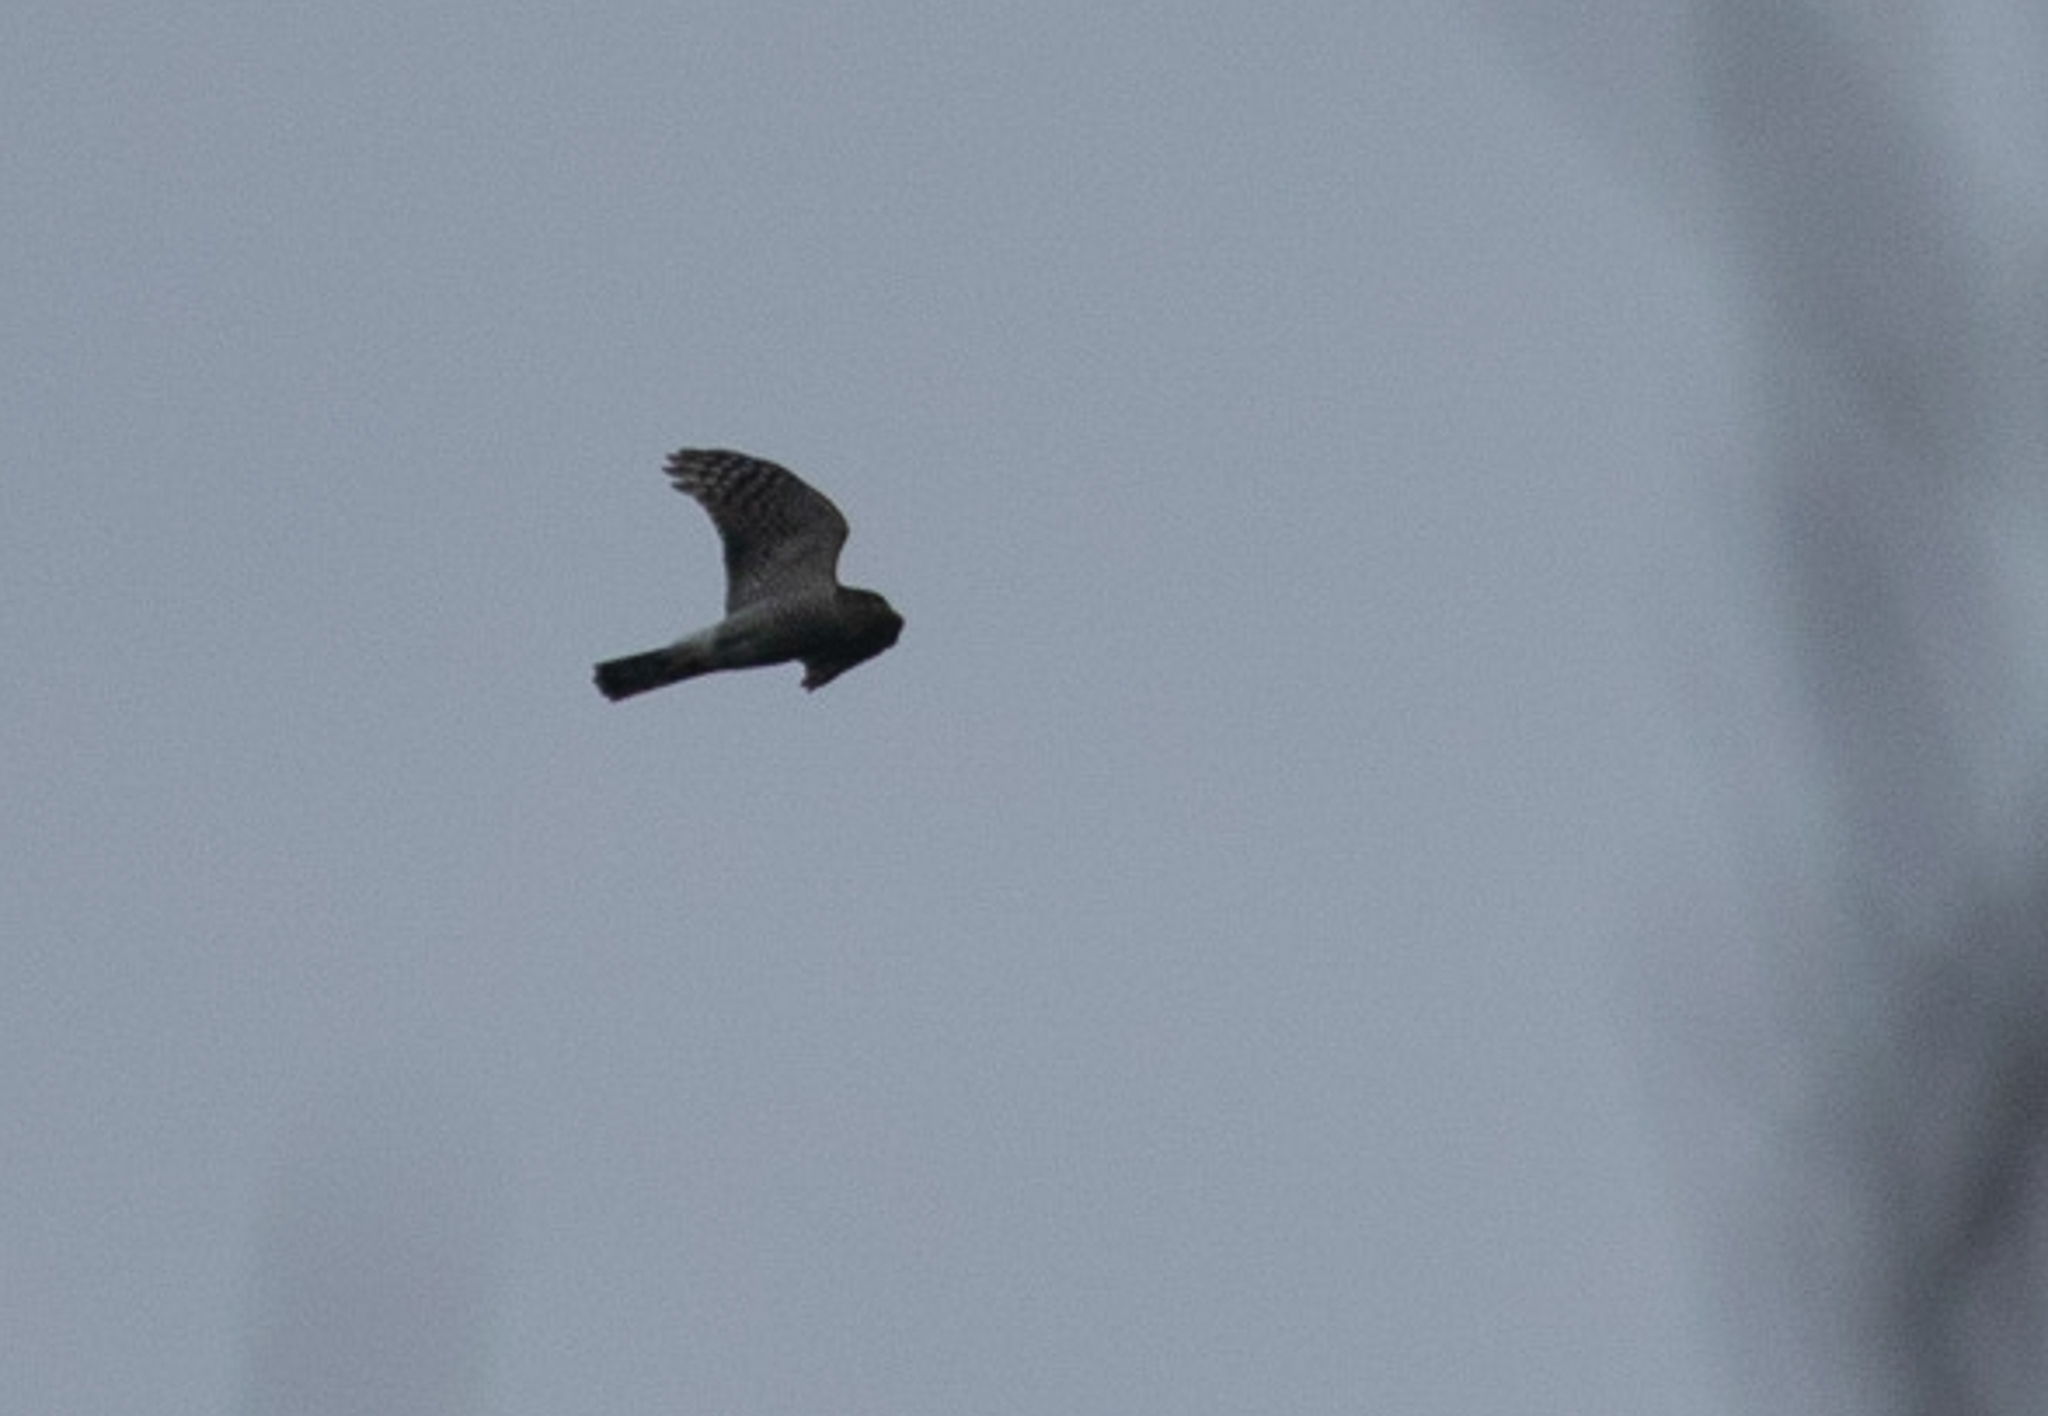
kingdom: Animalia
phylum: Chordata
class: Aves
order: Accipitriformes
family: Accipitridae
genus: Accipiter
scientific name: Accipiter nisus
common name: Eurasian sparrowhawk
